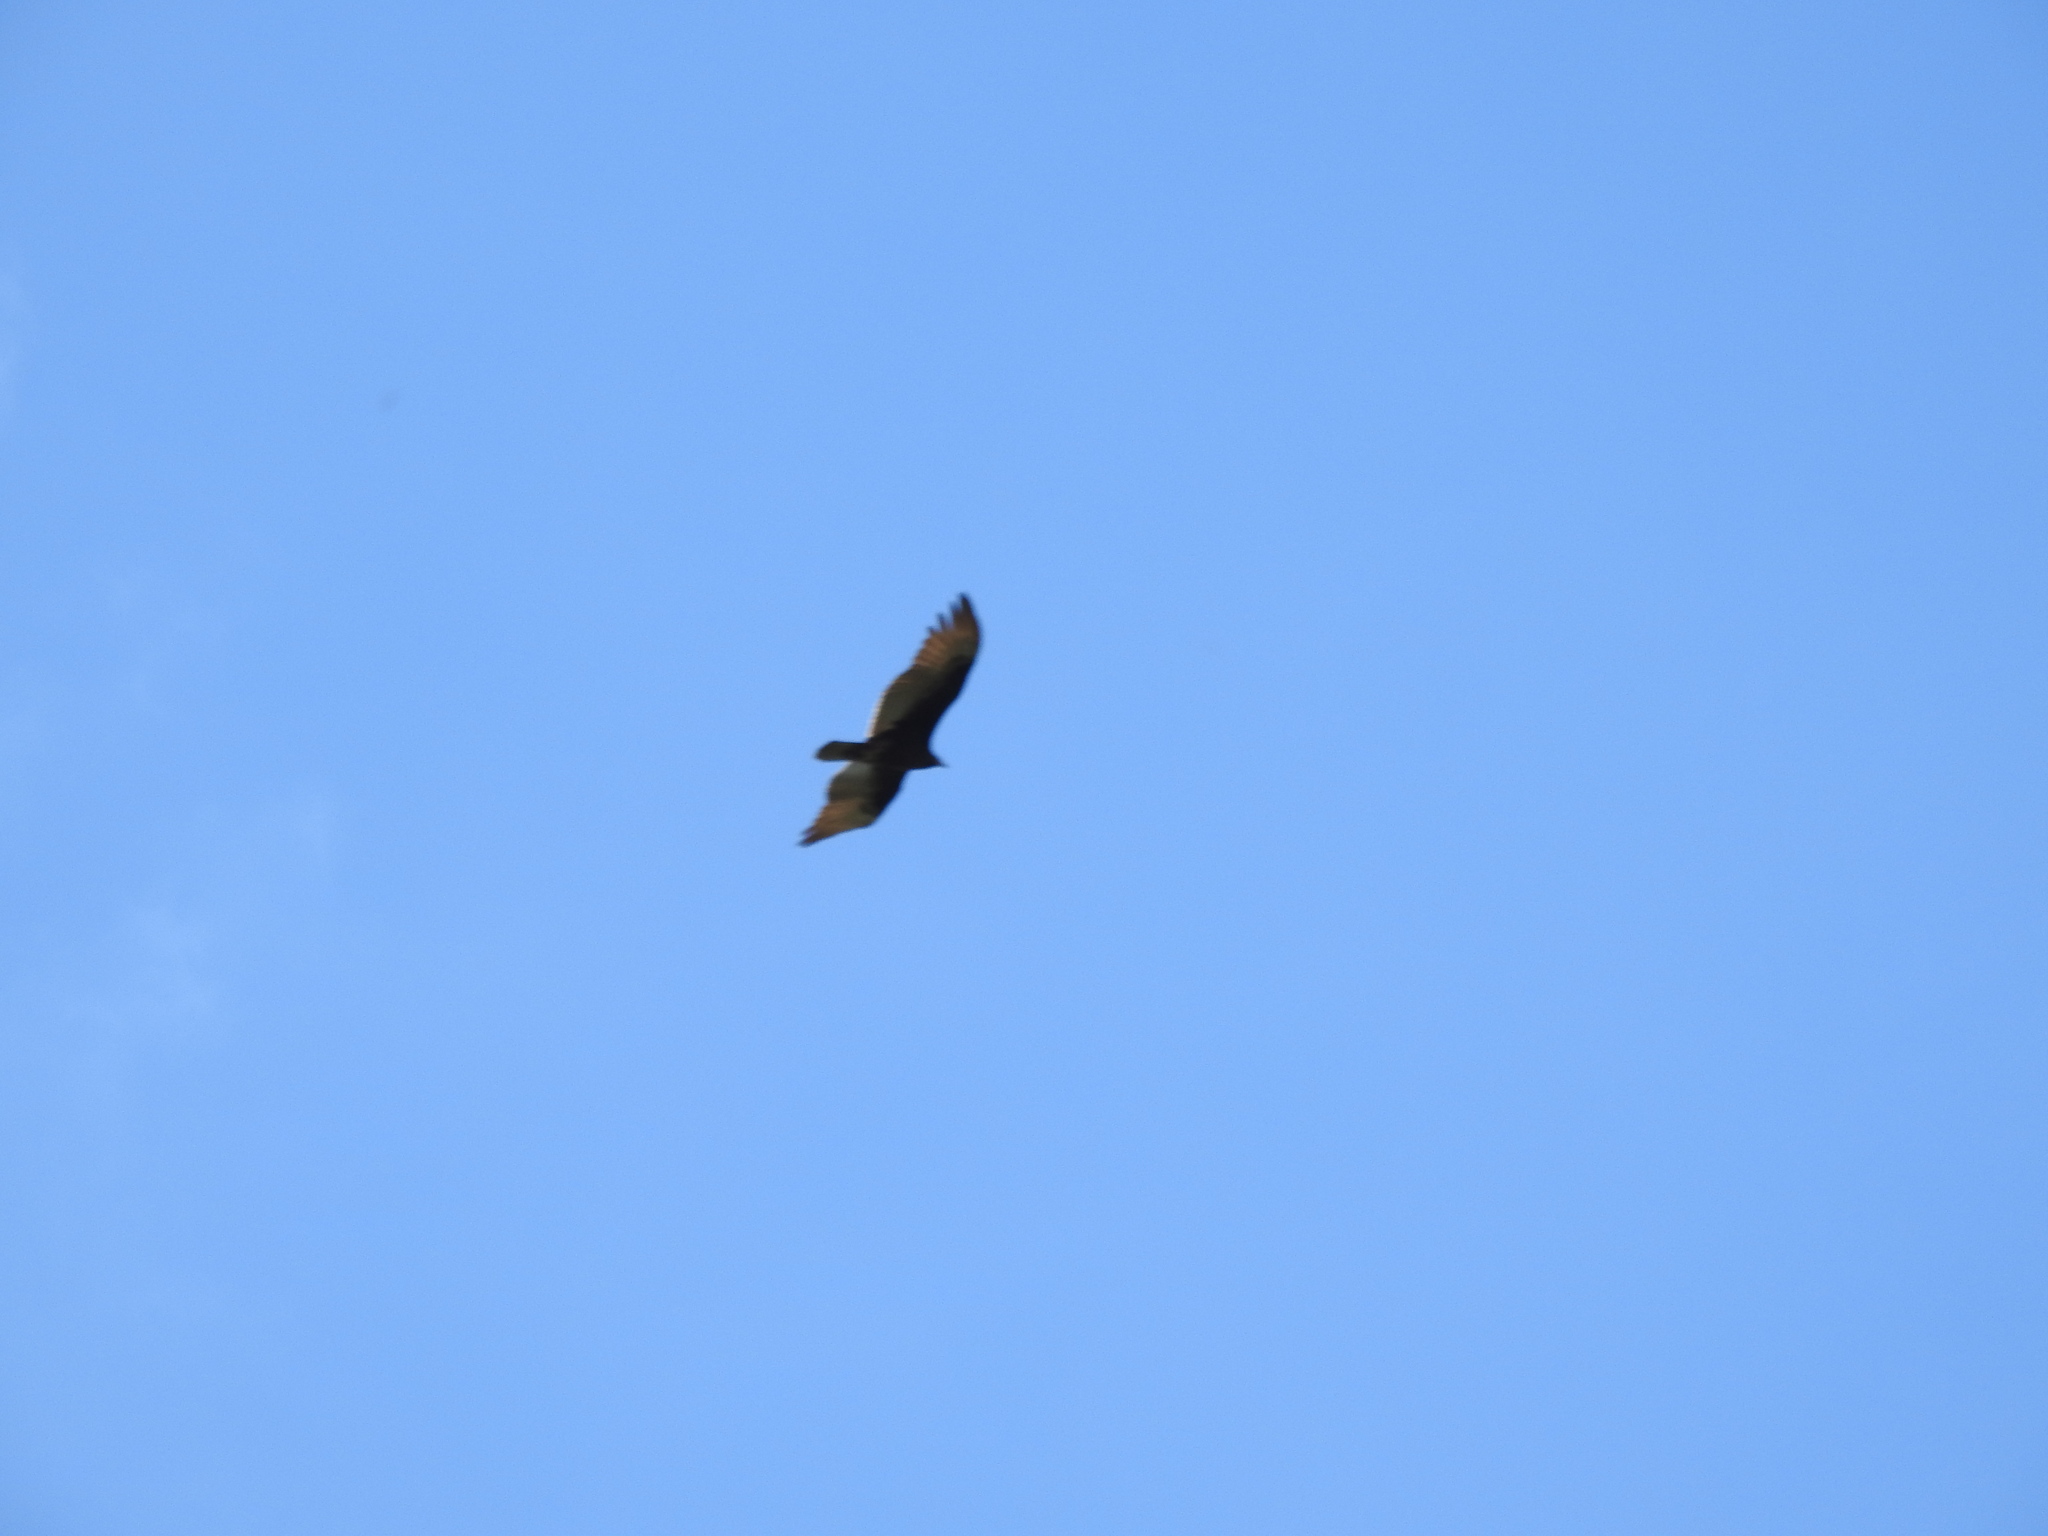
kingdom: Animalia
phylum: Chordata
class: Aves
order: Accipitriformes
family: Cathartidae
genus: Cathartes
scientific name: Cathartes aura
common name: Turkey vulture
